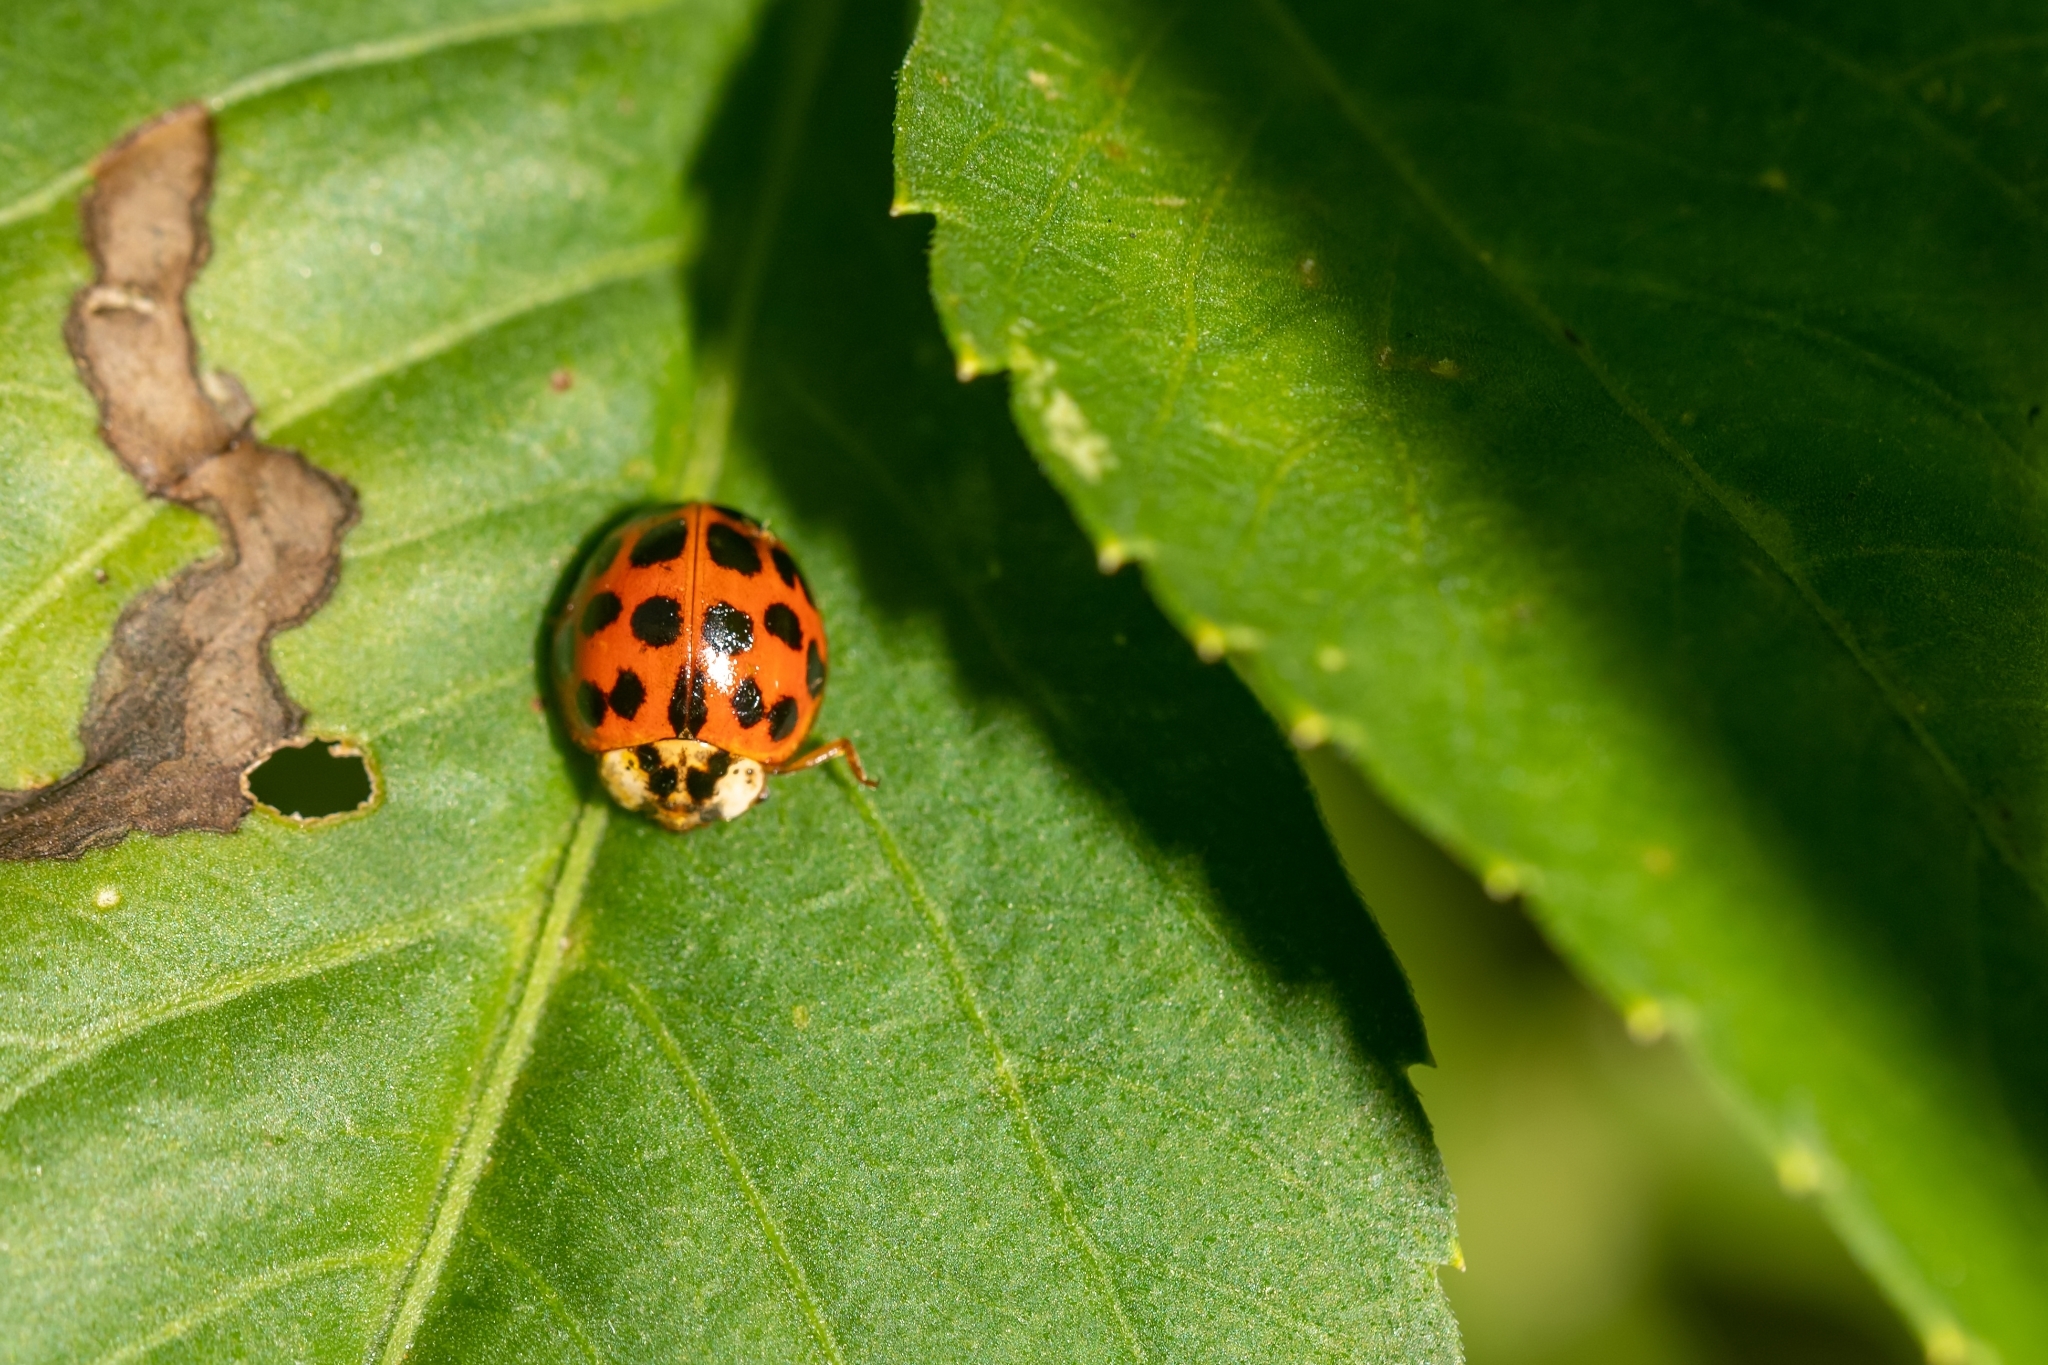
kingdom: Animalia
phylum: Arthropoda
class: Insecta
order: Coleoptera
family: Coccinellidae
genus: Harmonia
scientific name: Harmonia axyridis
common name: Harlequin ladybird
